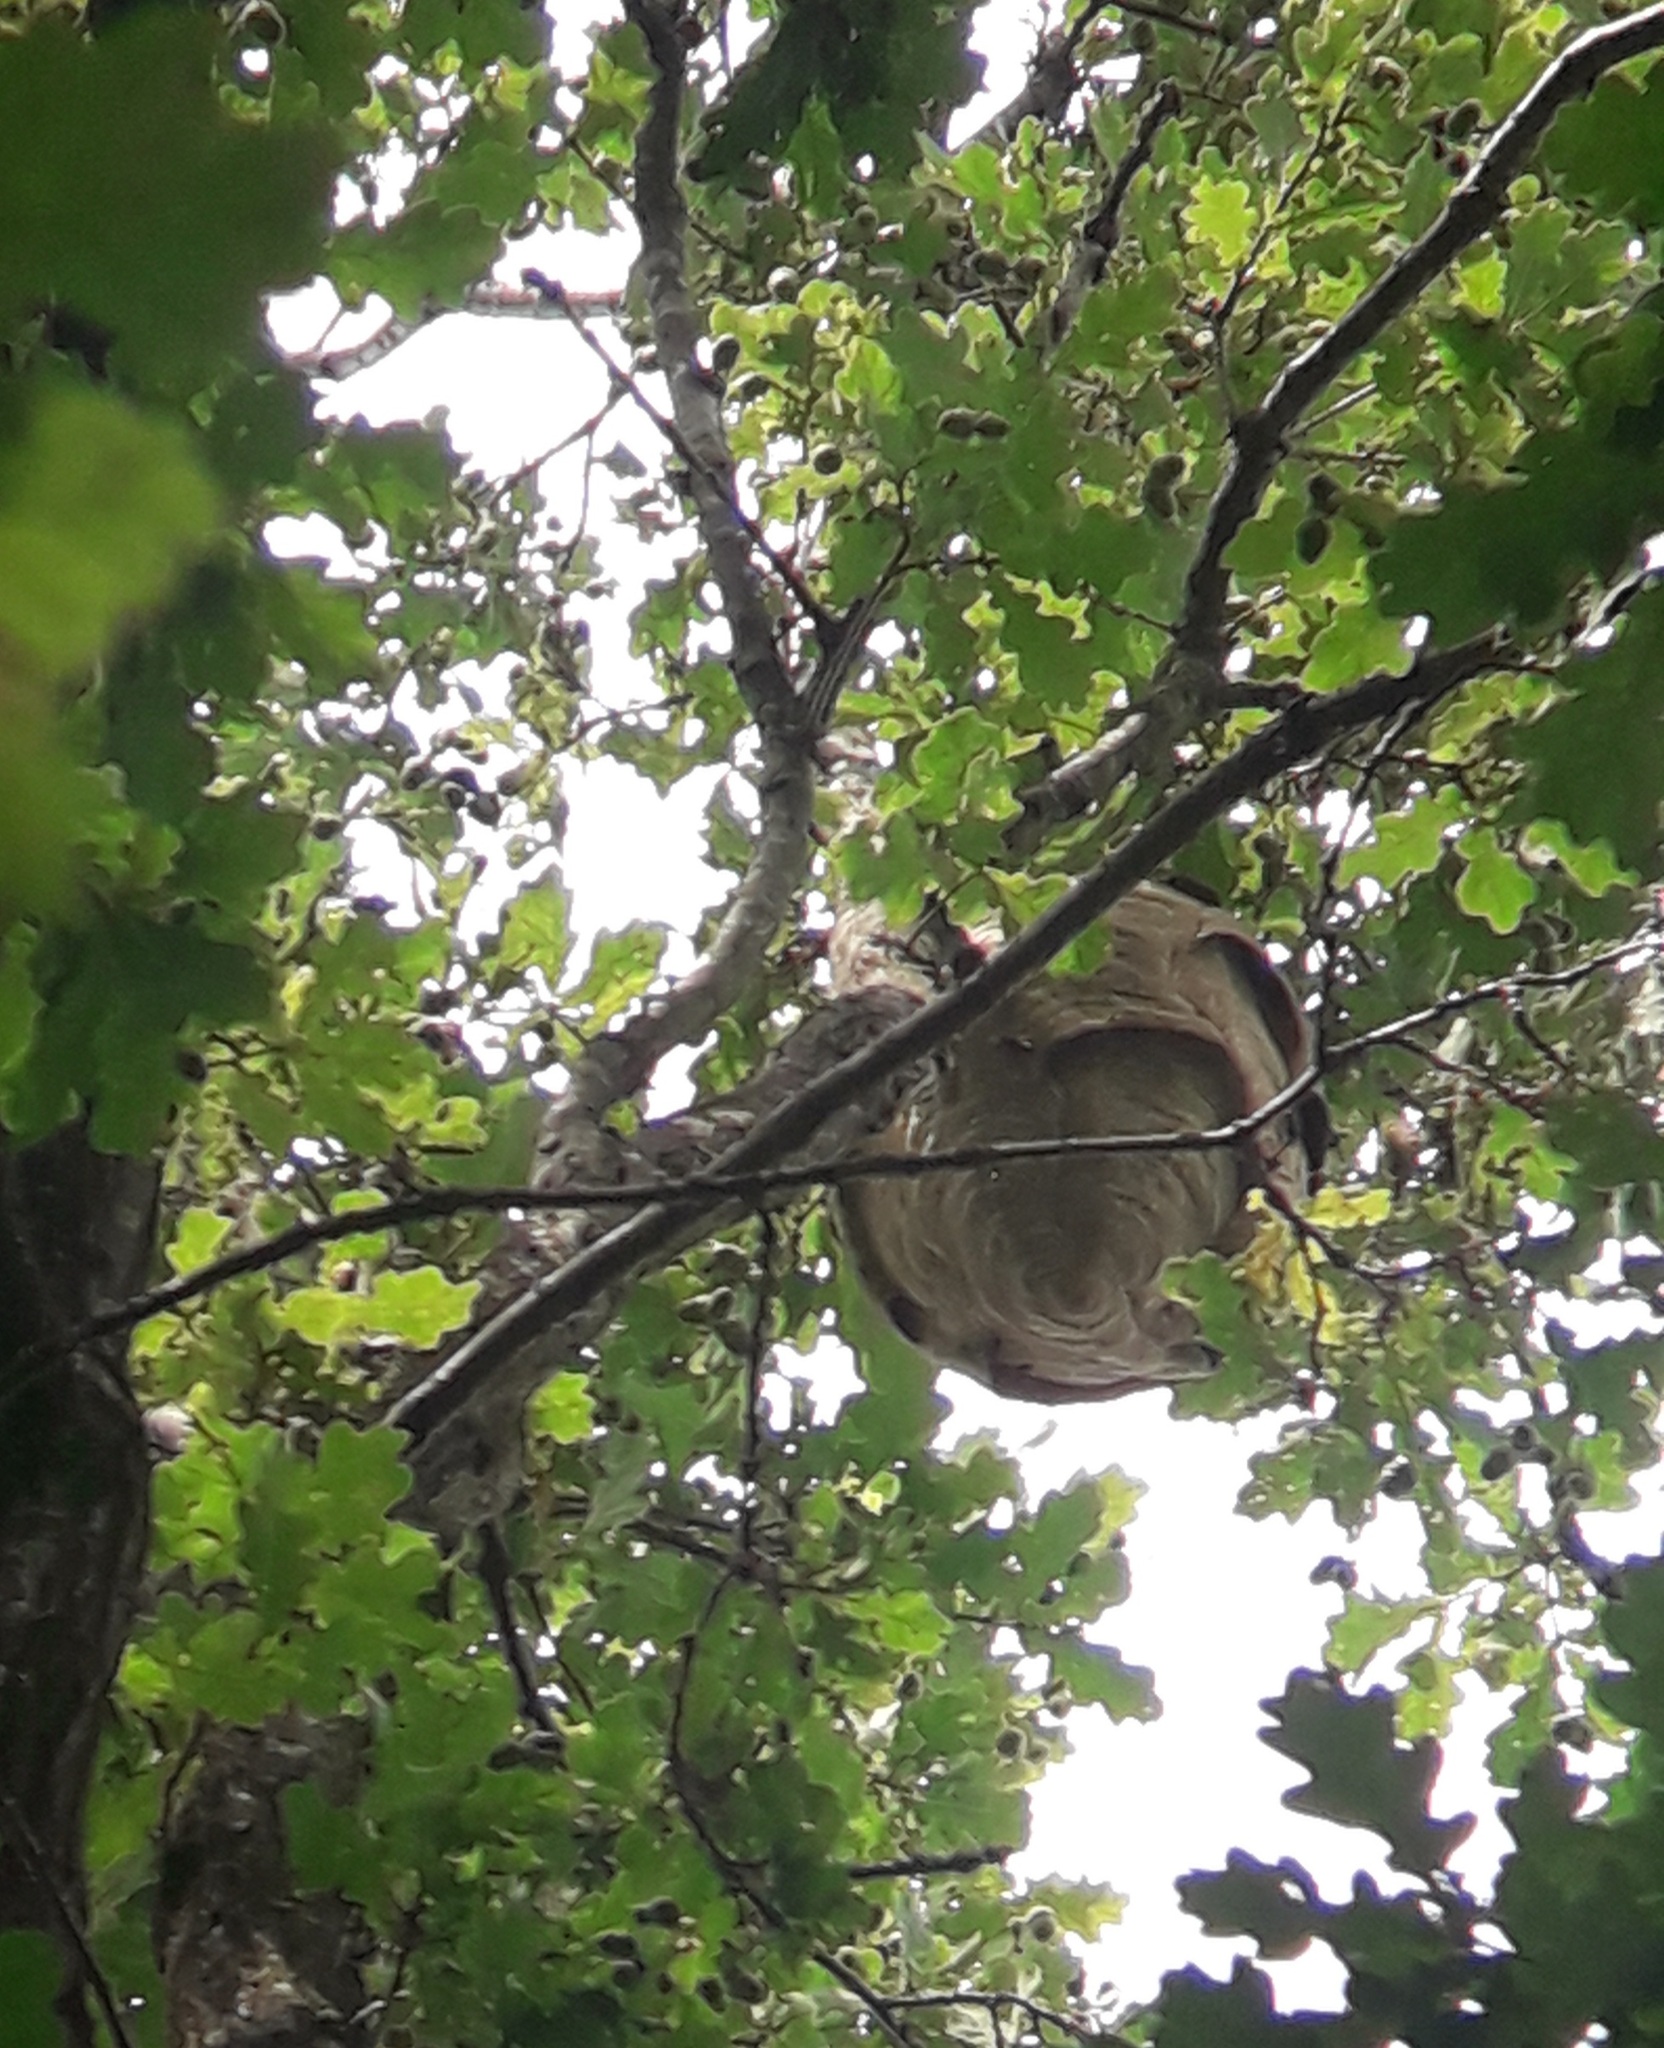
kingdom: Animalia
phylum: Arthropoda
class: Insecta
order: Hymenoptera
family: Vespidae
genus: Vespa
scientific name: Vespa velutina
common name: Asian hornet
